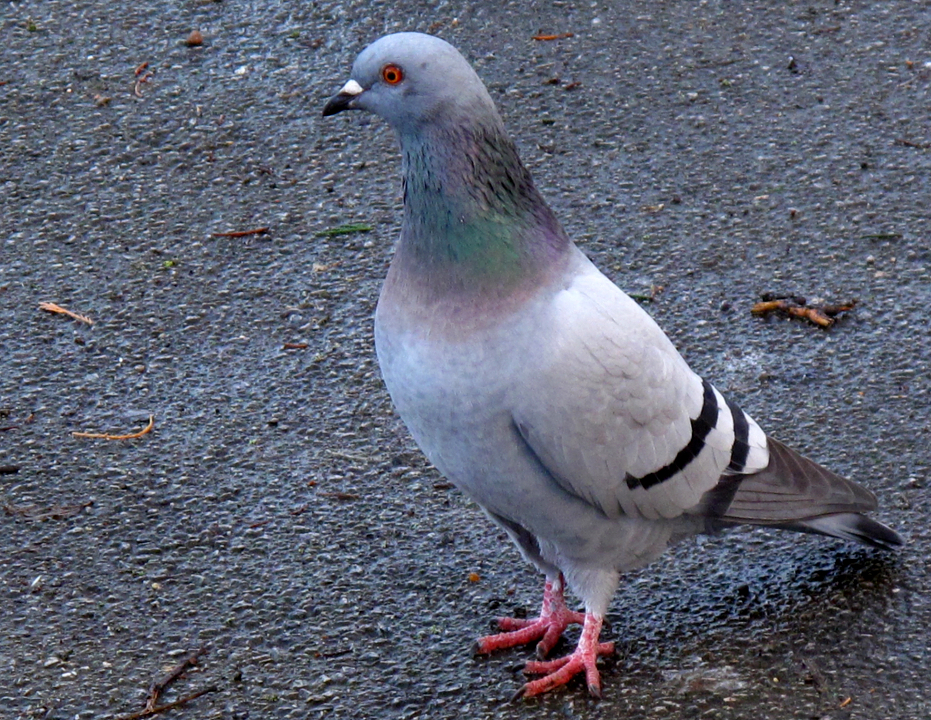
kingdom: Animalia
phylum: Chordata
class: Aves
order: Columbiformes
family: Columbidae
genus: Columba
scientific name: Columba livia
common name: Rock pigeon
